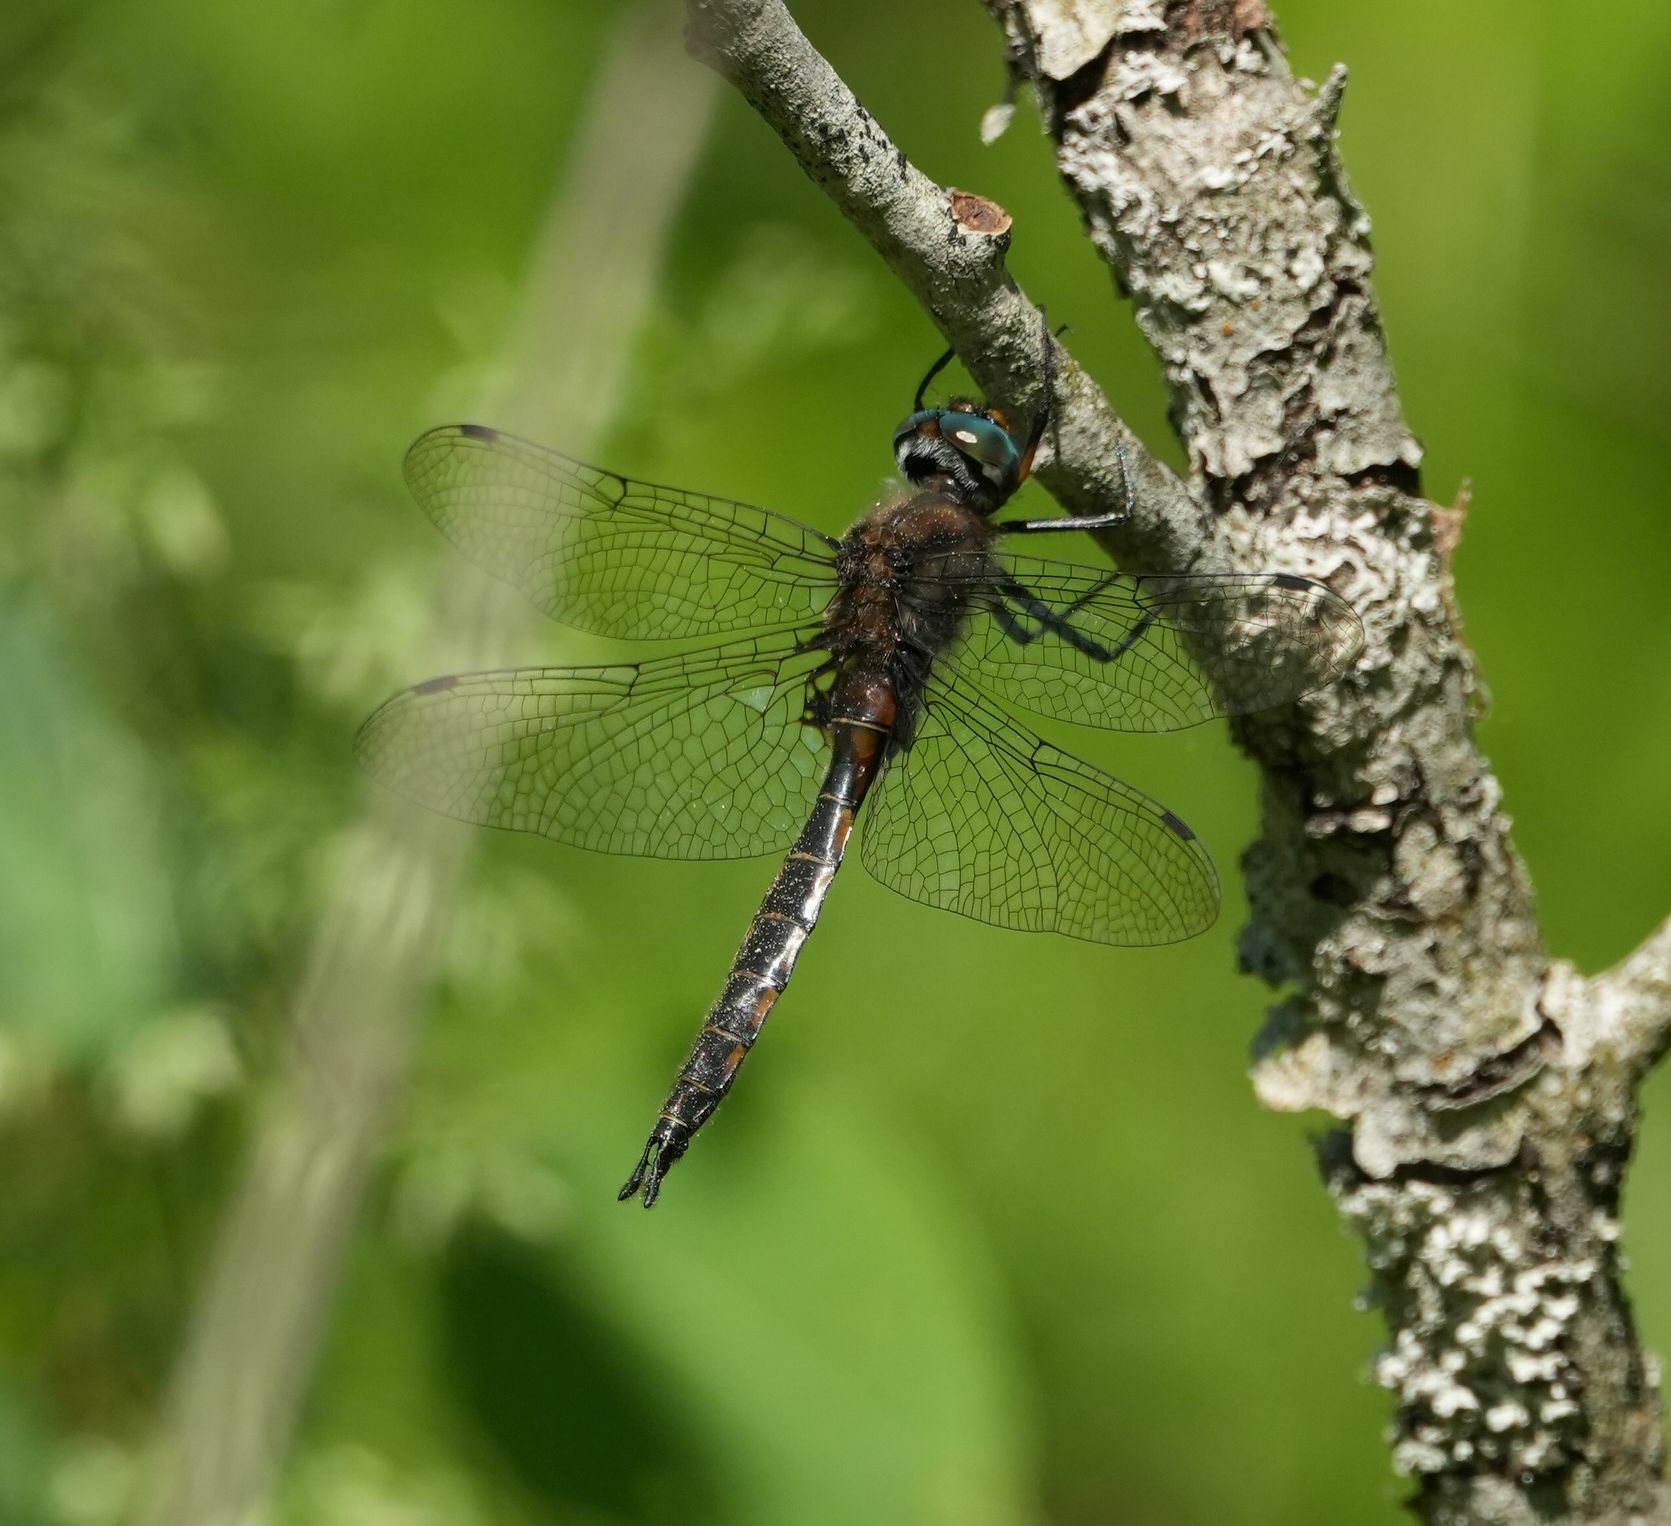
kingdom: Animalia
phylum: Arthropoda
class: Insecta
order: Odonata
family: Corduliidae
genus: Epitheca
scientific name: Epitheca spinigera
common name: Spiny baskettail
